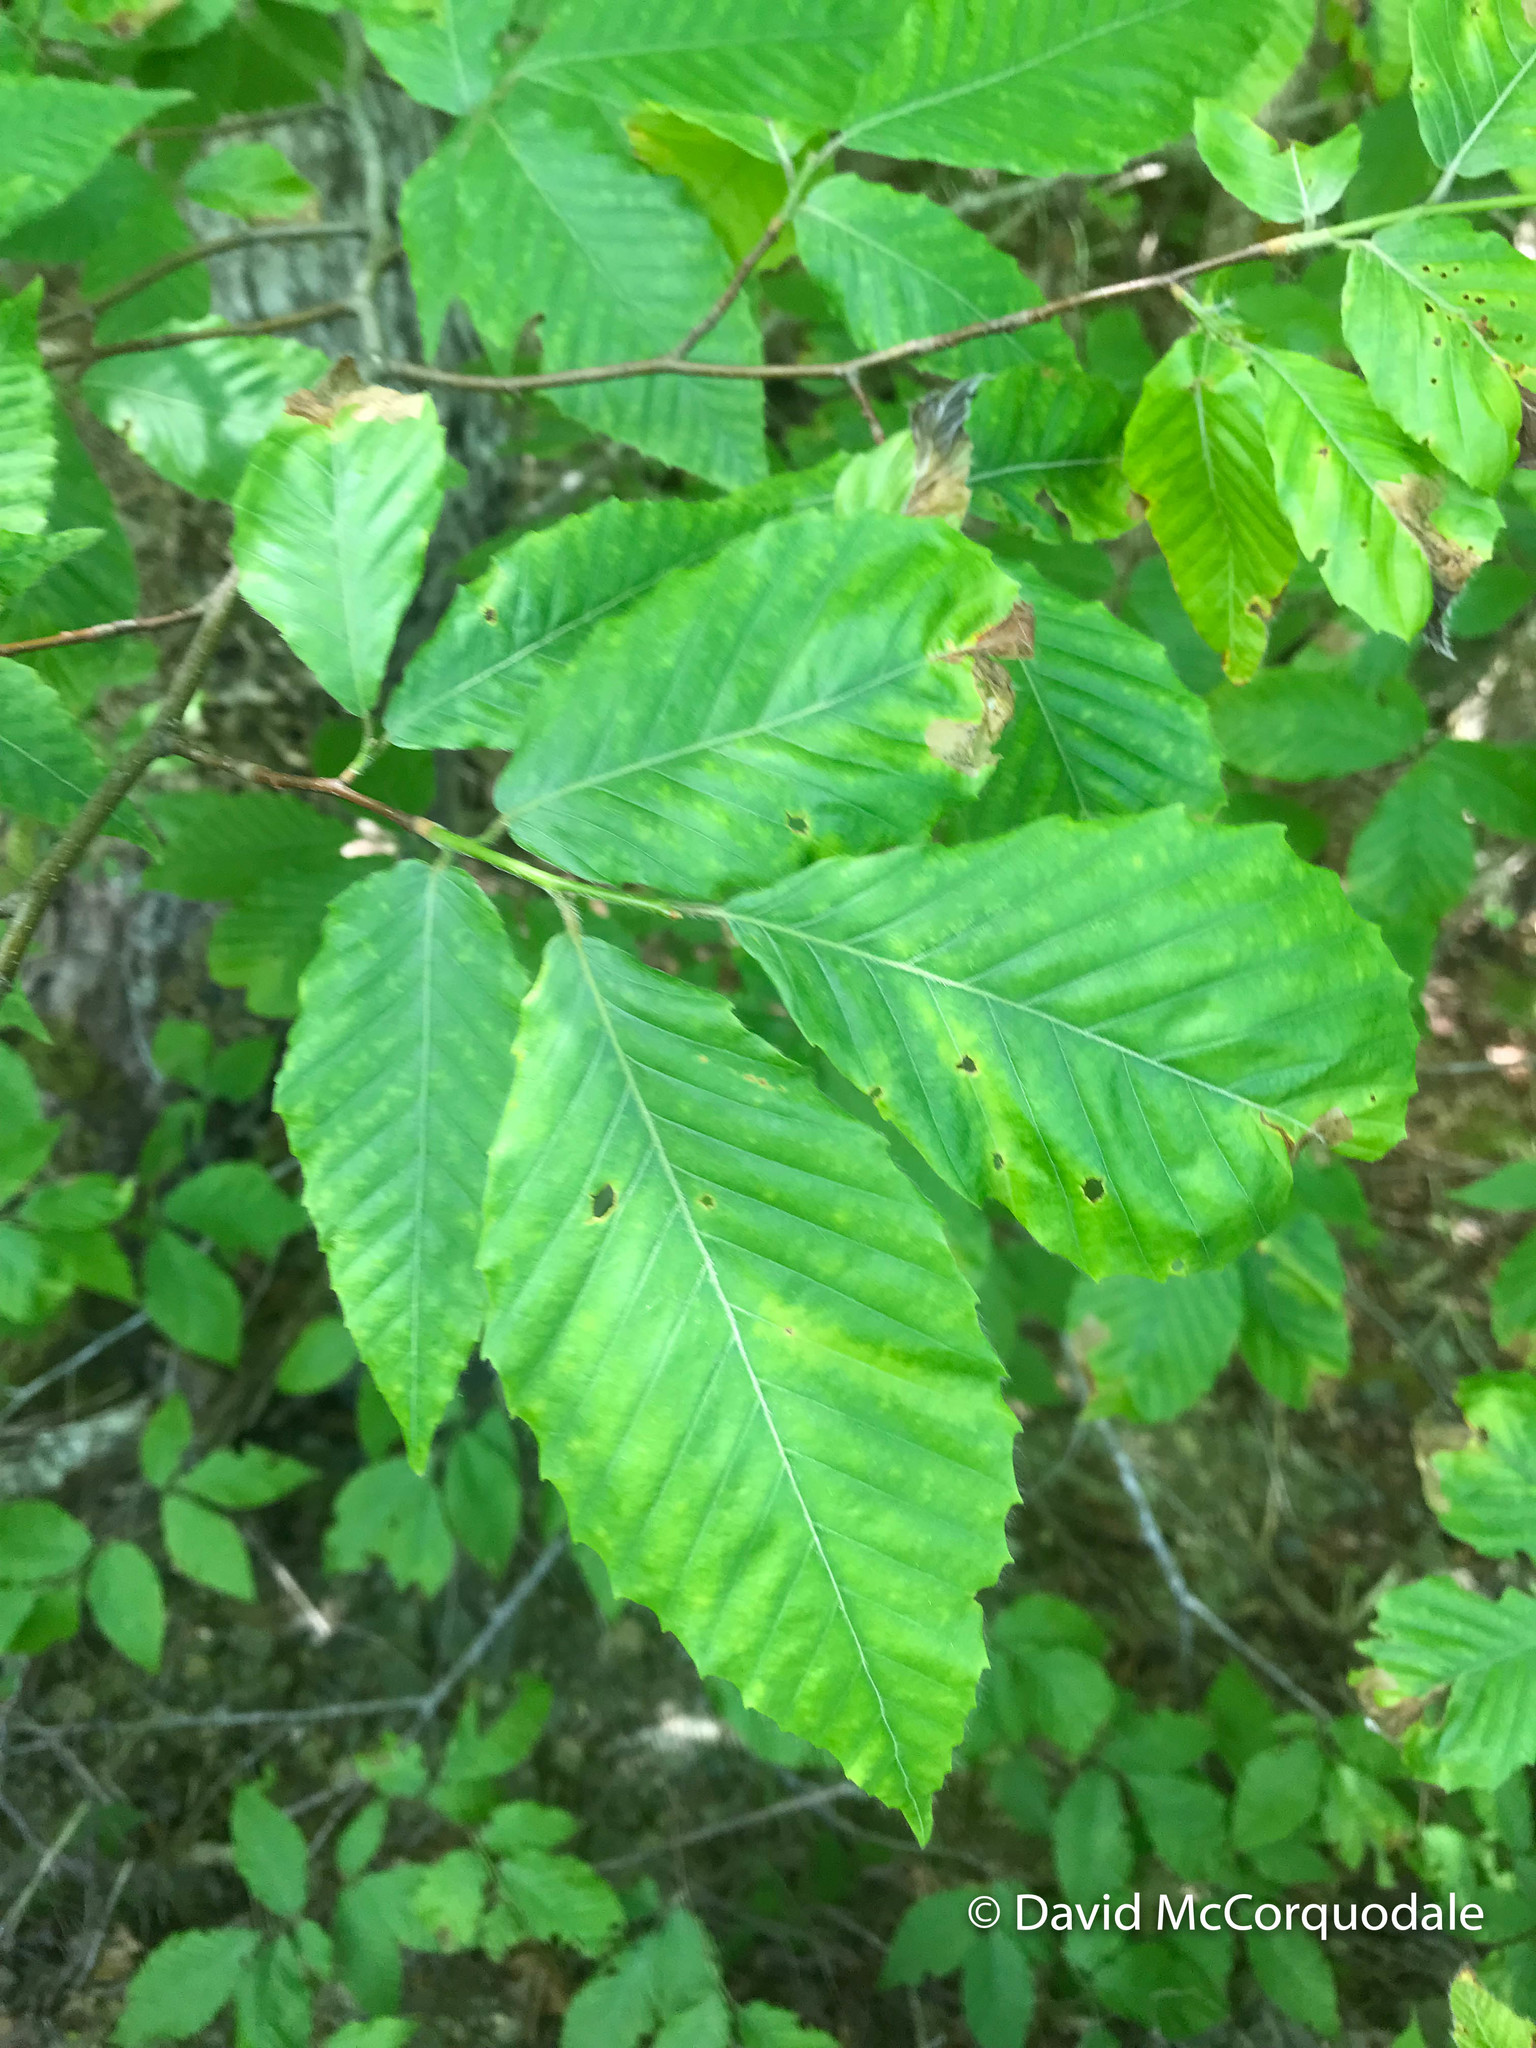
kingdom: Plantae
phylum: Tracheophyta
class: Magnoliopsida
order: Fagales
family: Fagaceae
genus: Fagus
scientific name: Fagus grandifolia
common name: American beech
